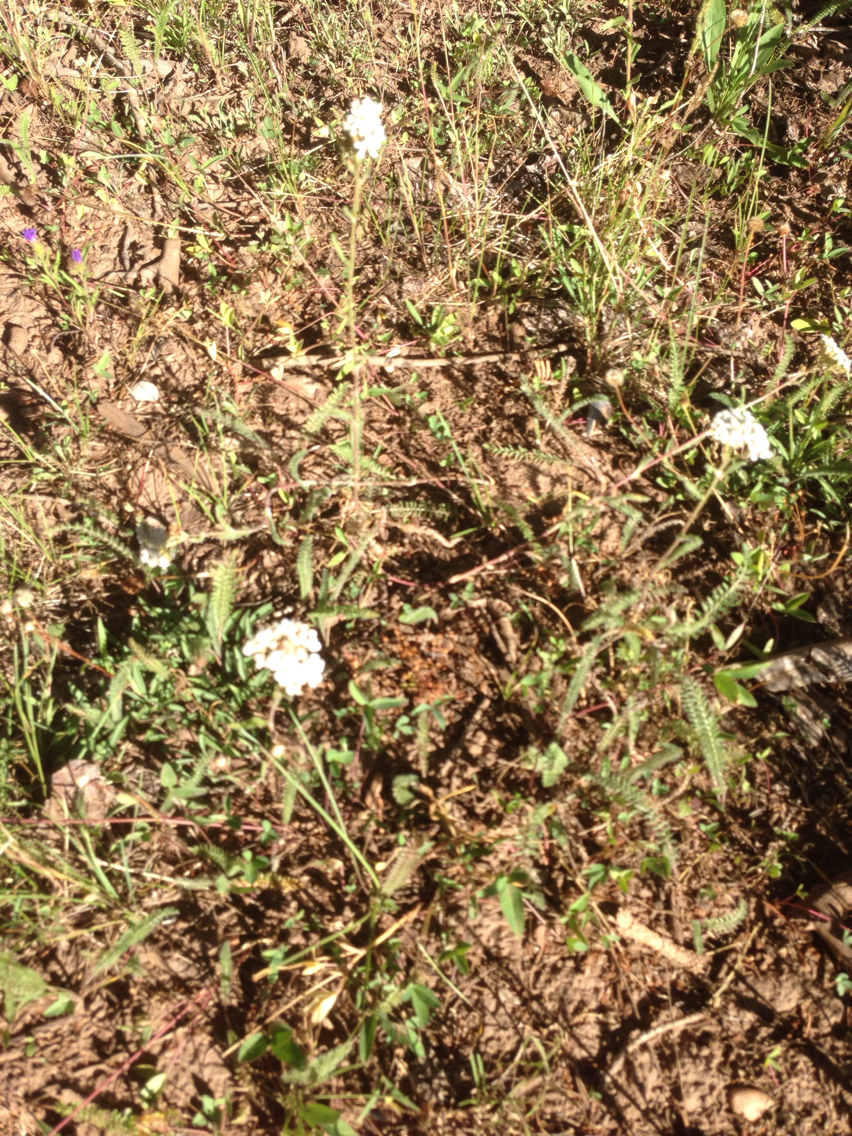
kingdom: Plantae
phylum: Tracheophyta
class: Magnoliopsida
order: Asterales
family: Asteraceae
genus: Achillea
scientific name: Achillea millefolium
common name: Yarrow
